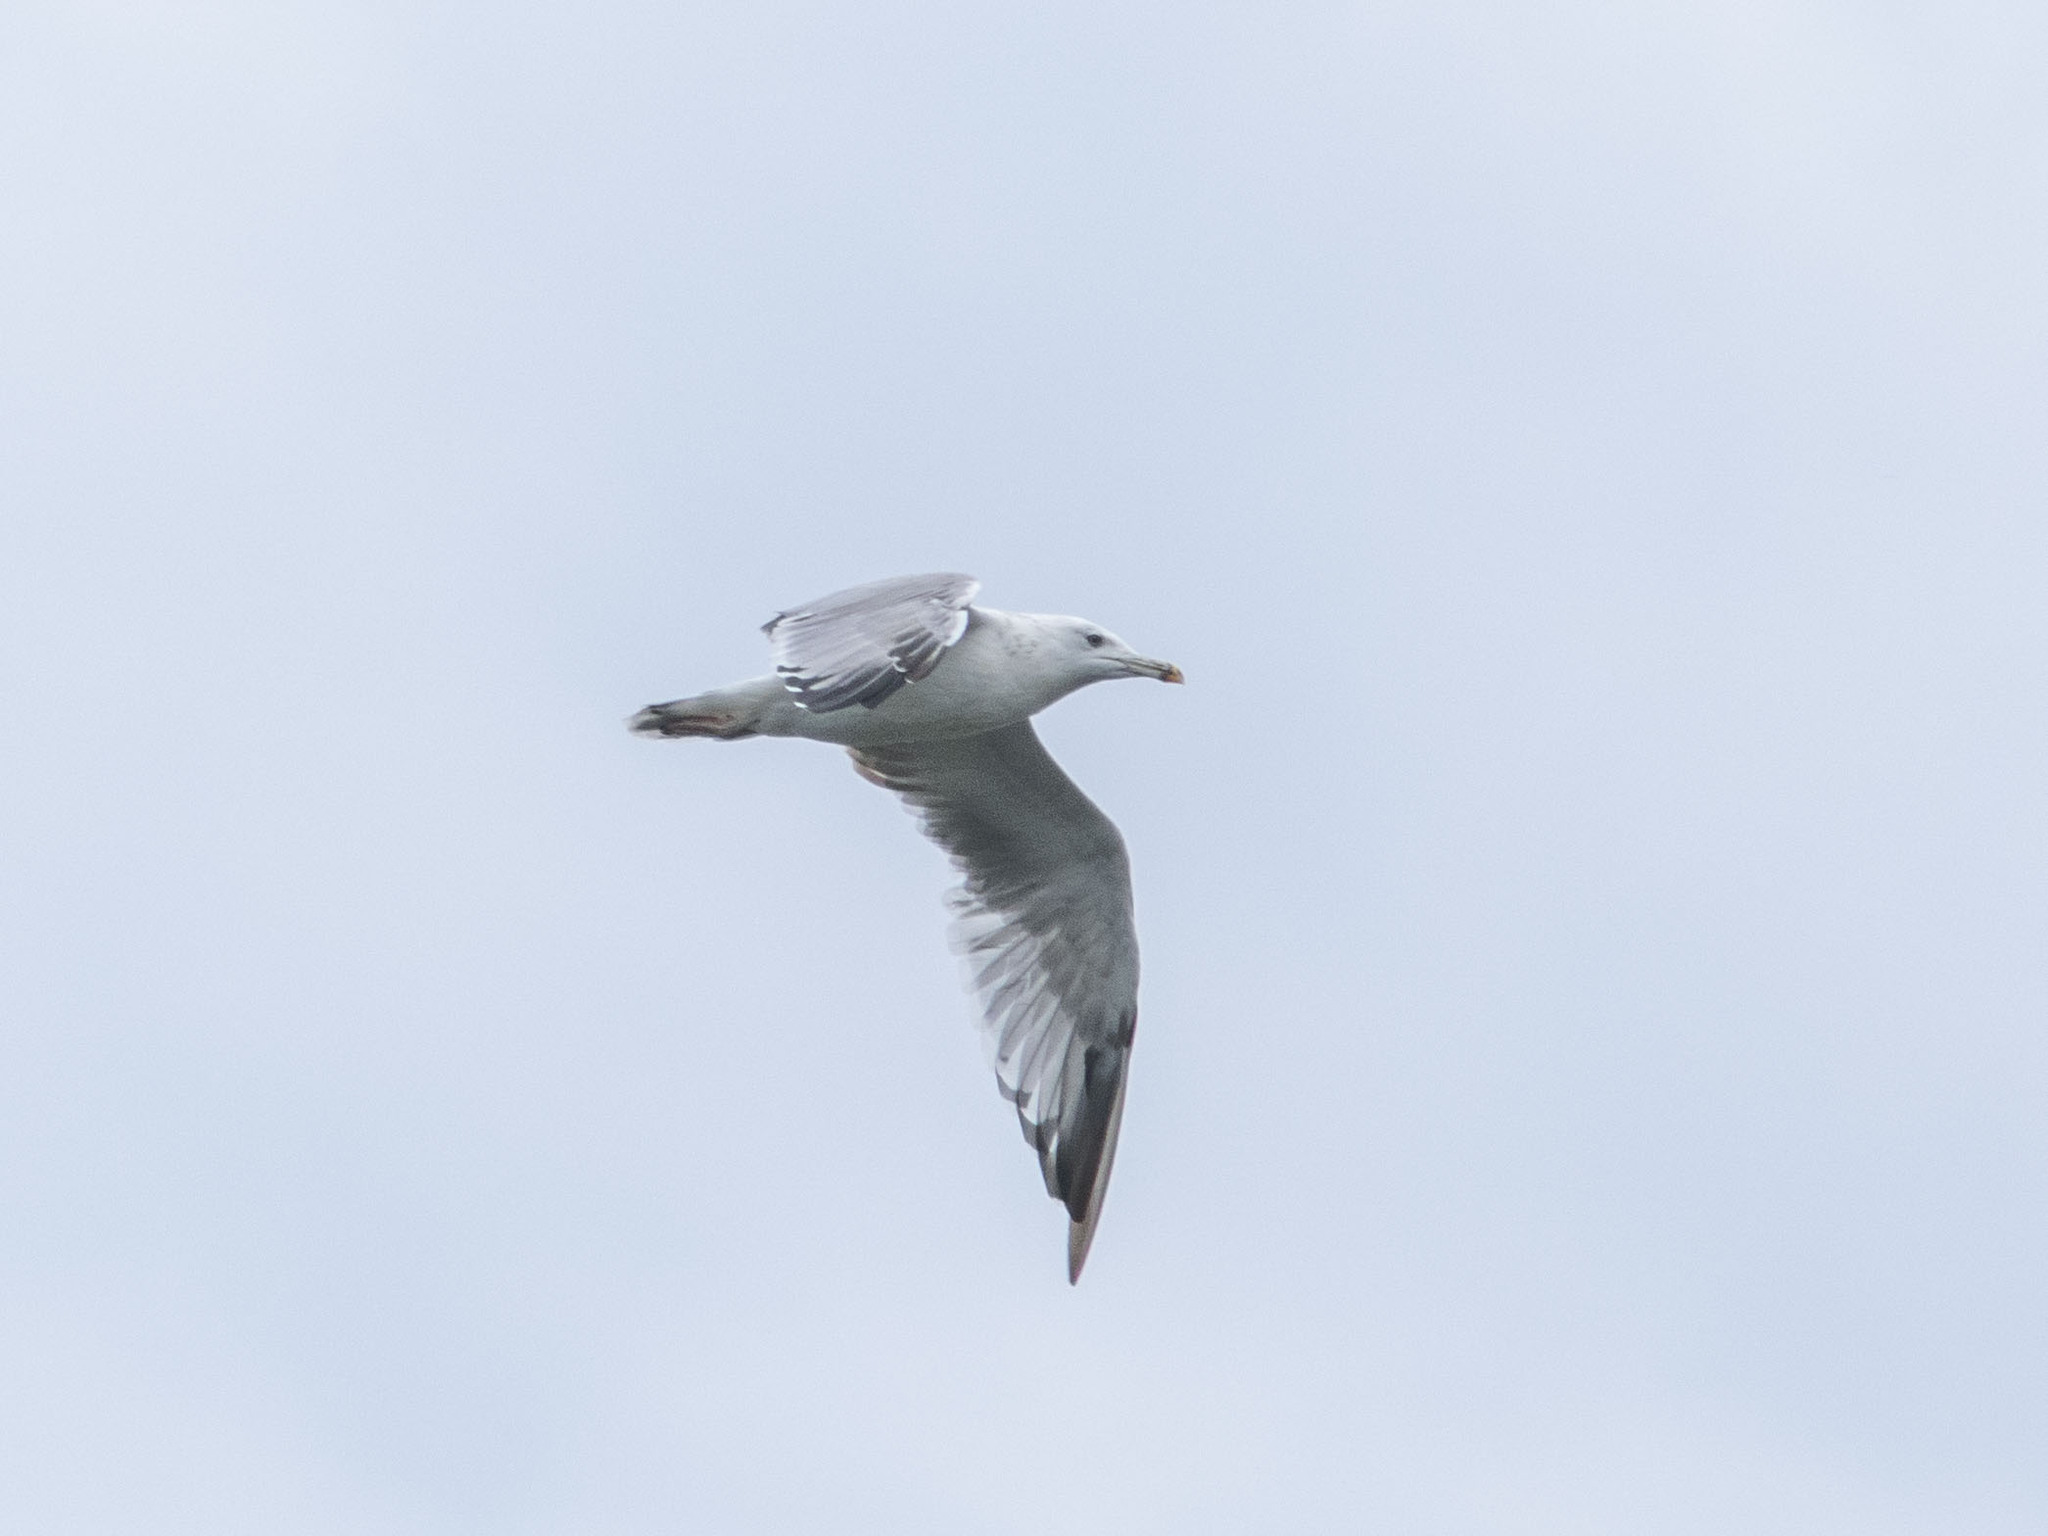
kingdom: Animalia
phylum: Chordata
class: Aves
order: Charadriiformes
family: Laridae
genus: Larus
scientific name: Larus cachinnans
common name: Caspian gull
